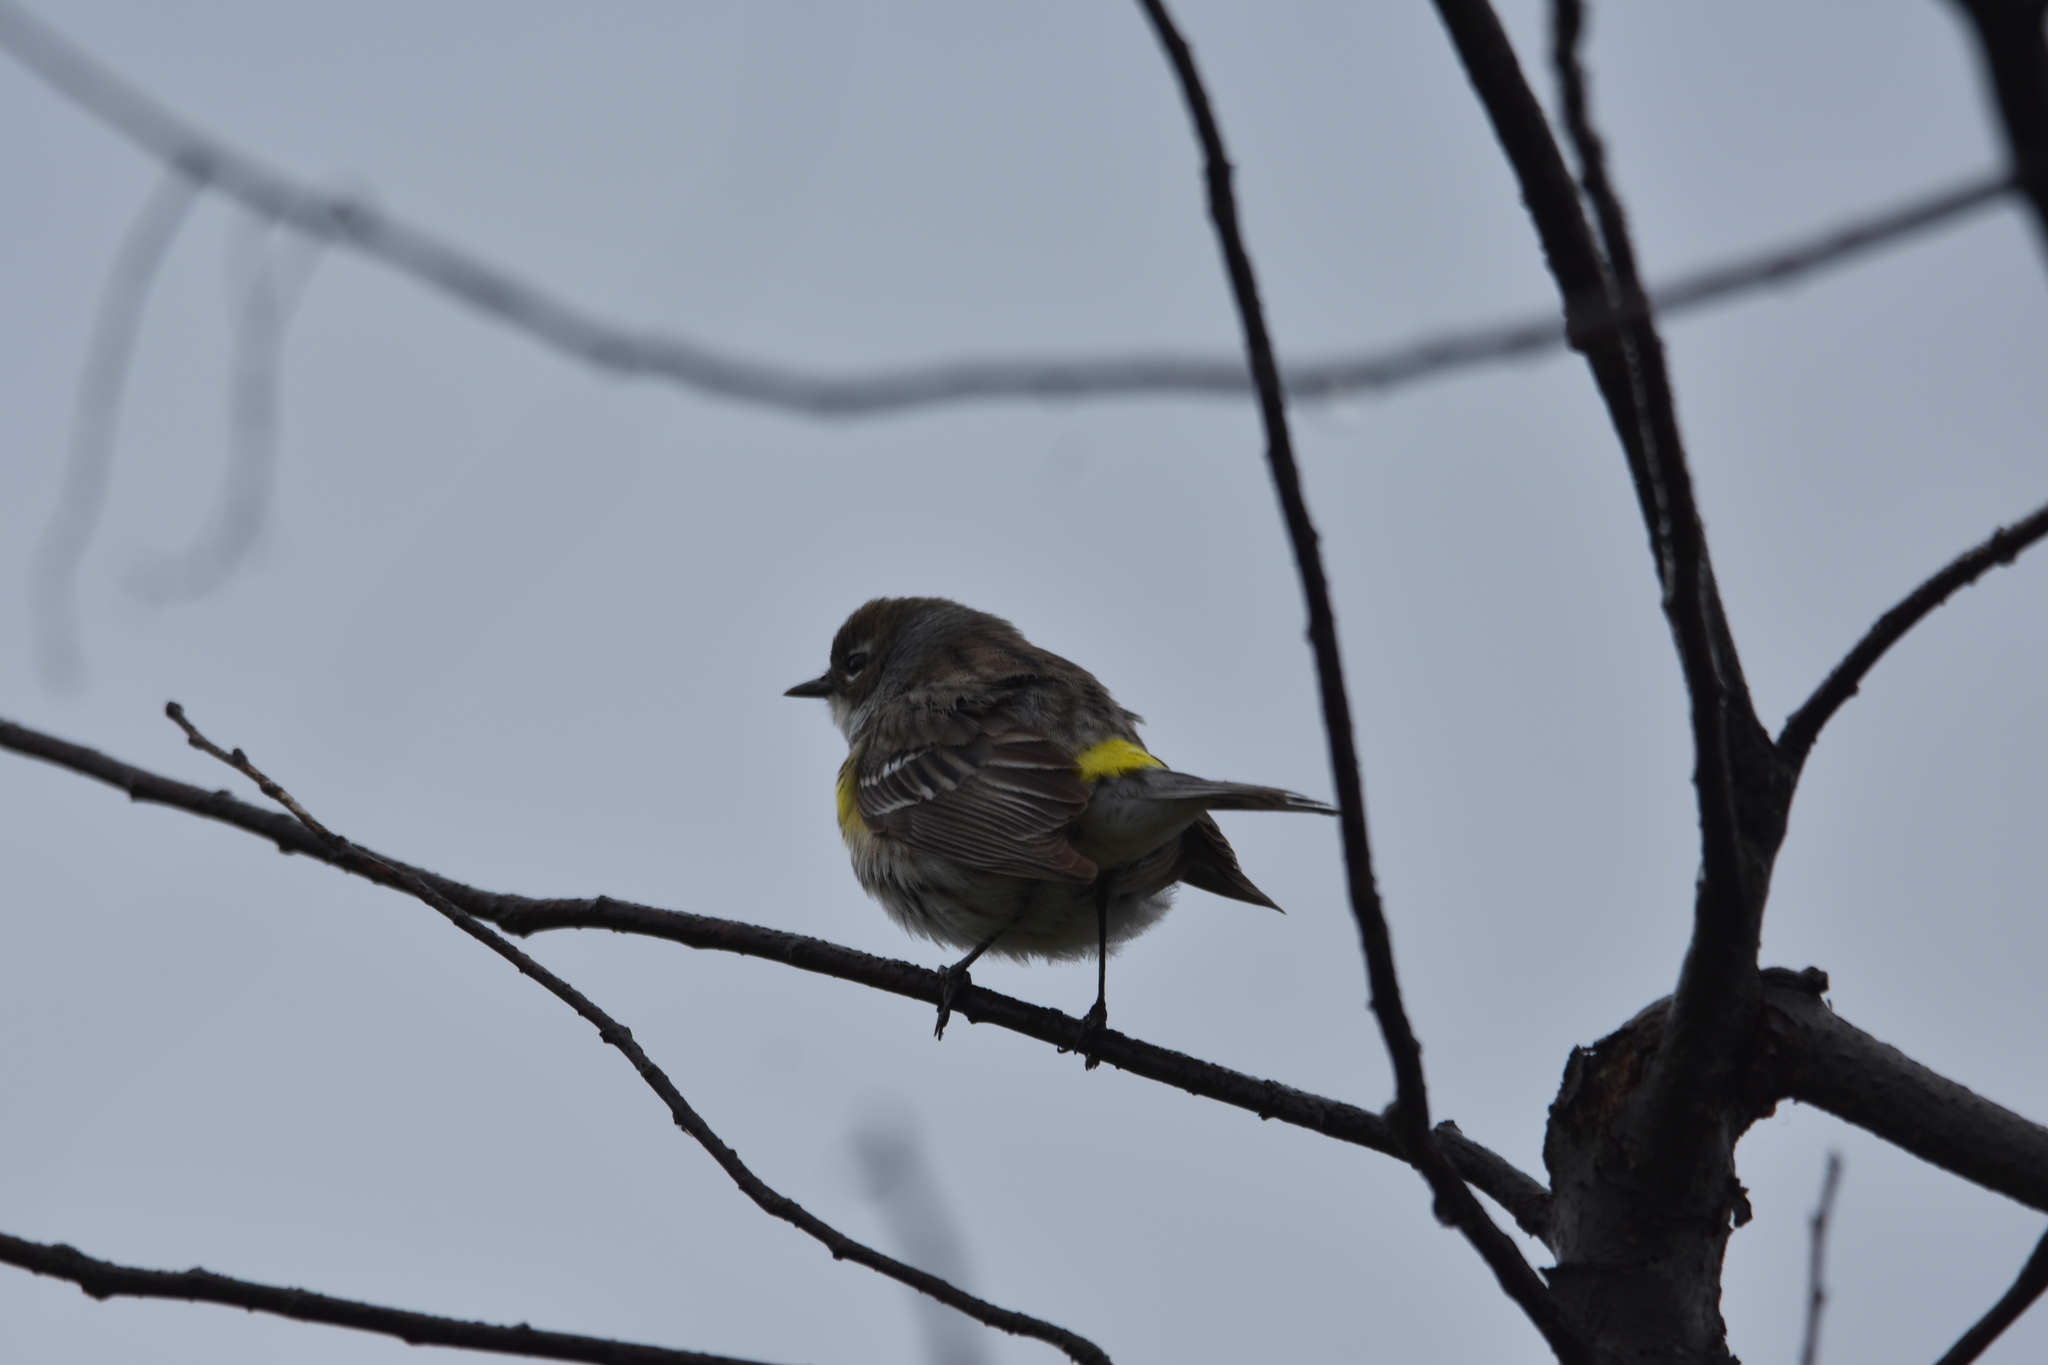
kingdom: Animalia
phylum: Chordata
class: Aves
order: Passeriformes
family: Parulidae
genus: Setophaga
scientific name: Setophaga coronata
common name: Myrtle warbler
